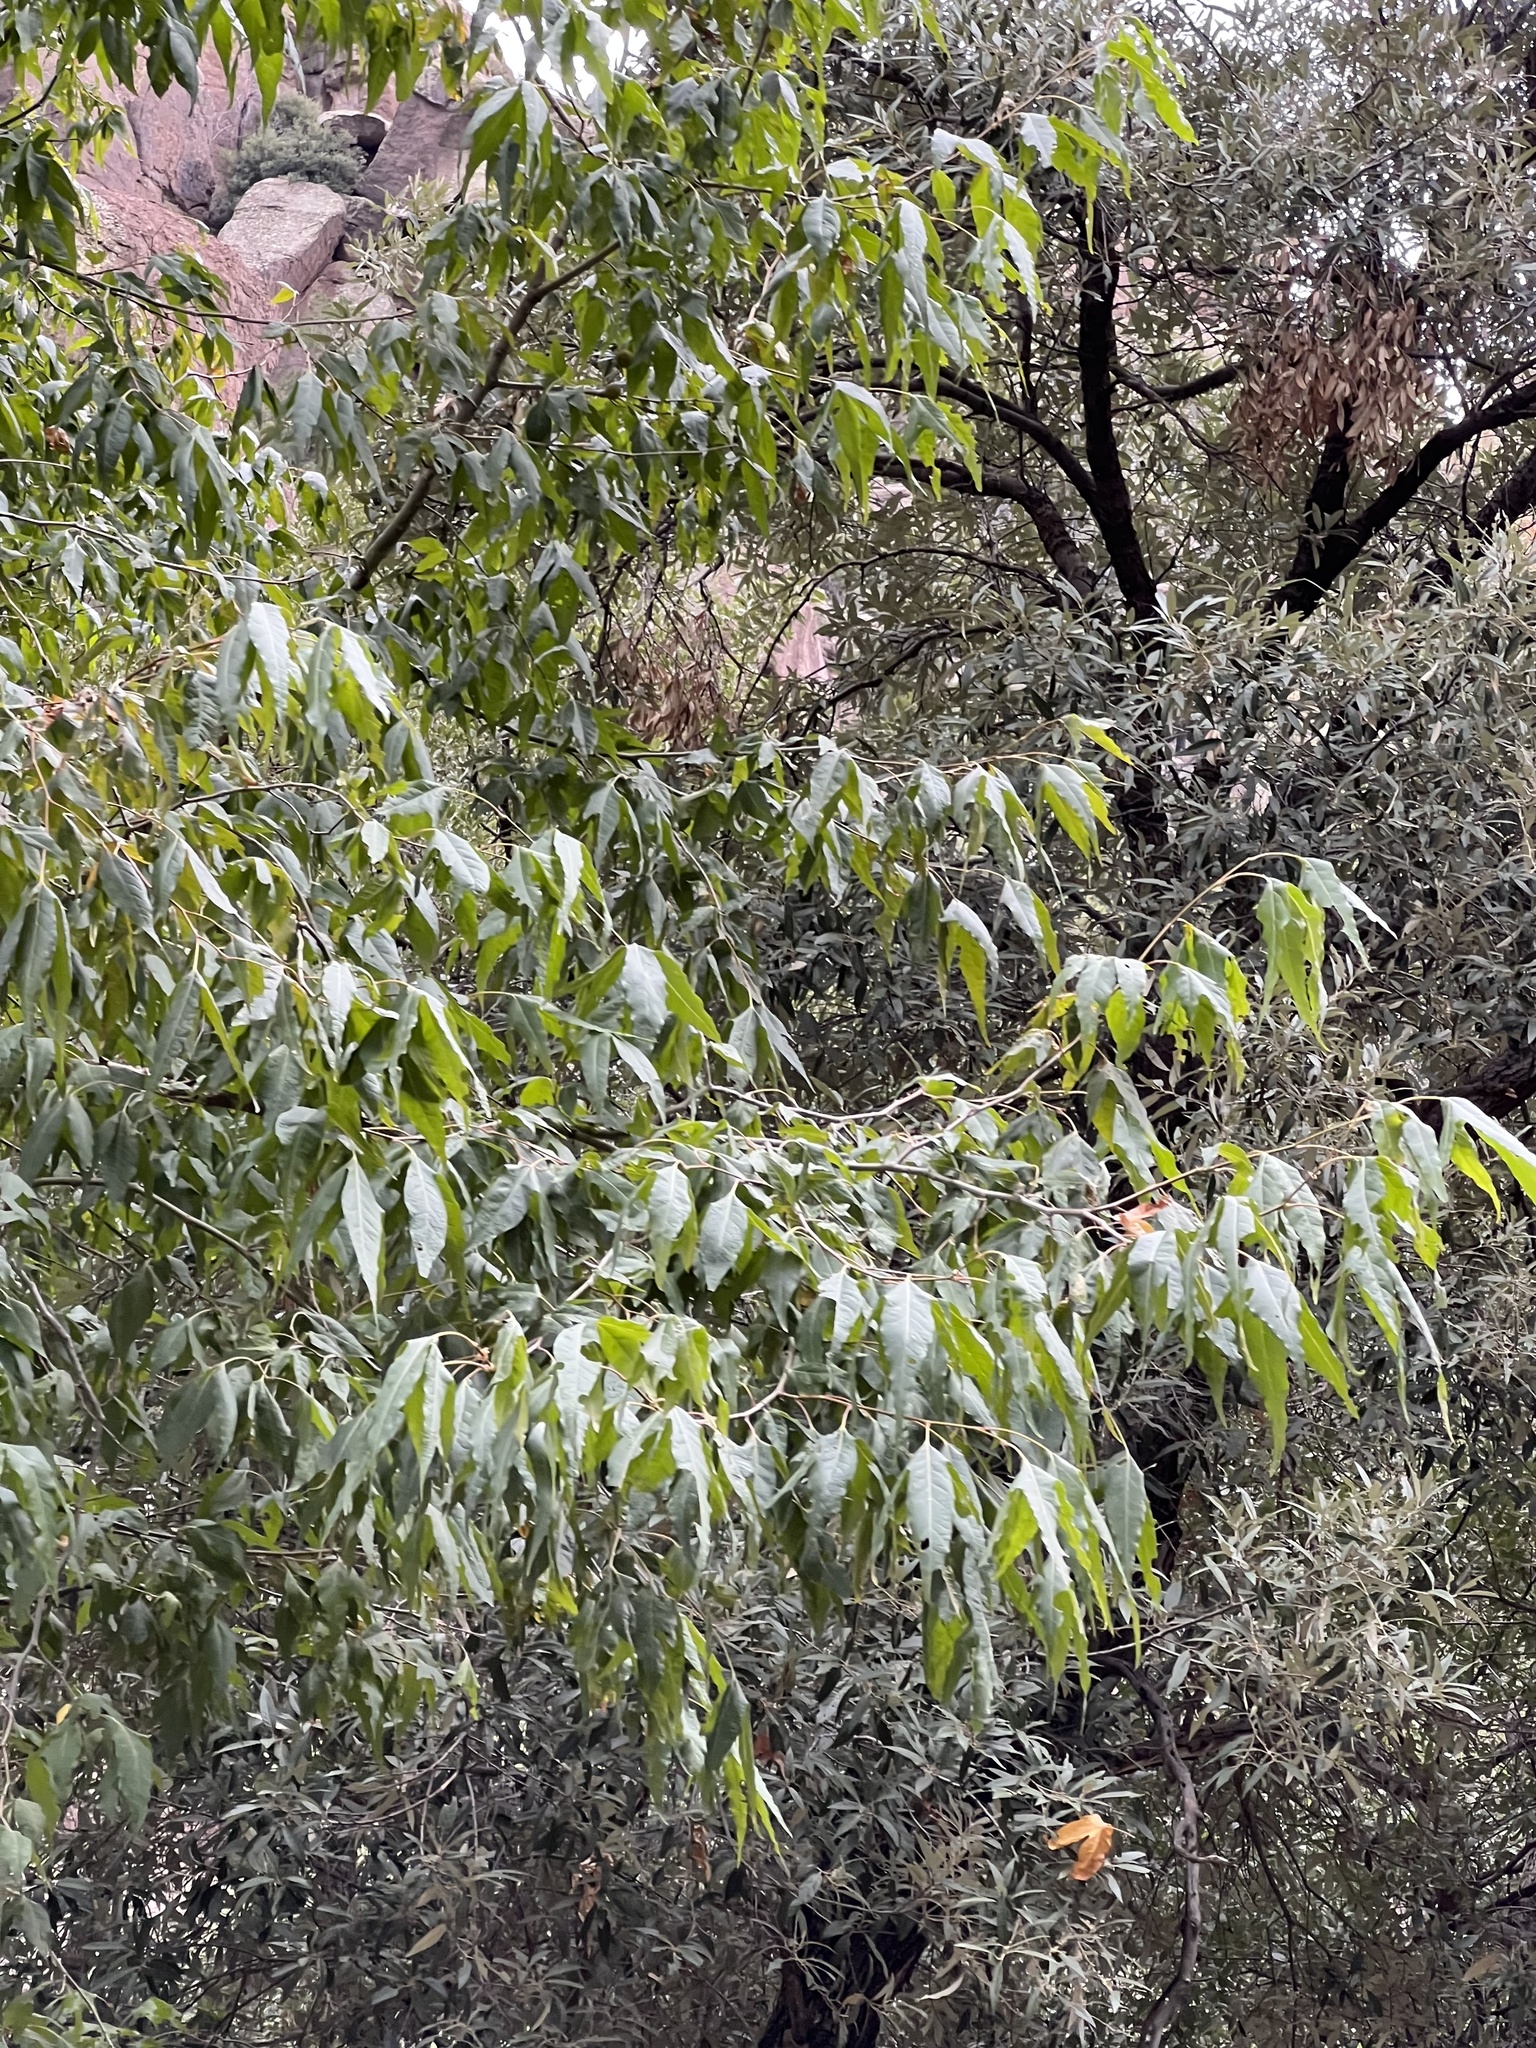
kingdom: Plantae
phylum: Tracheophyta
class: Magnoliopsida
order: Proteales
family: Platanaceae
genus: Platanus
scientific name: Platanus wrightii
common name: Arizona sycamore
